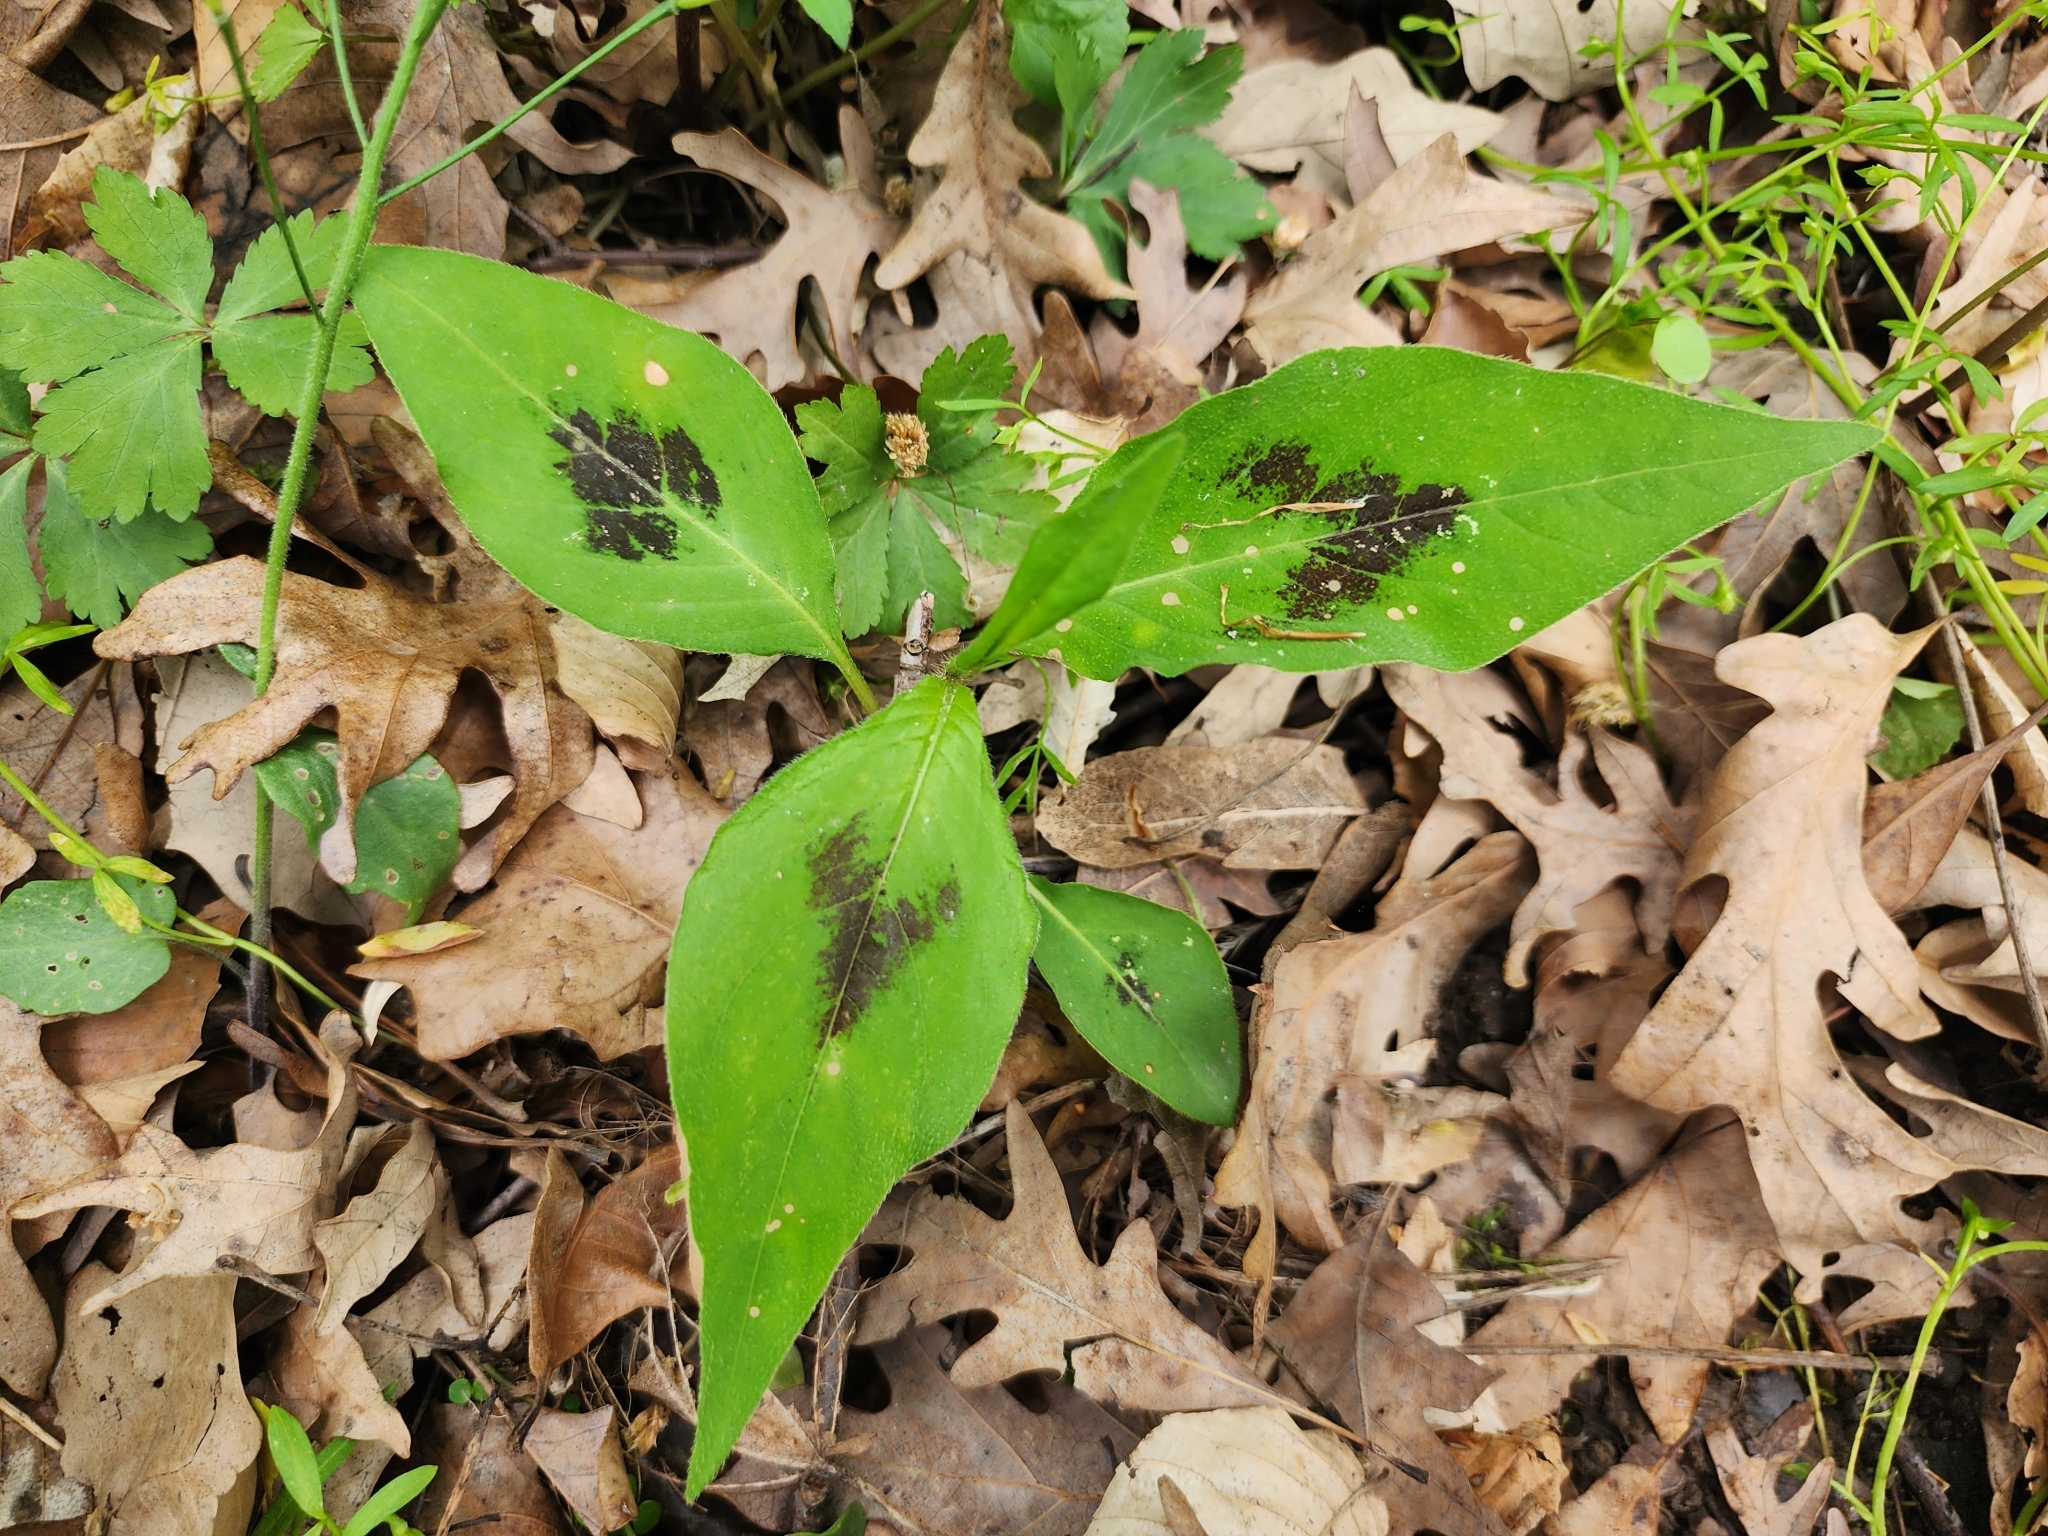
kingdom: Plantae
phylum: Tracheophyta
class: Magnoliopsida
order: Caryophyllales
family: Polygonaceae
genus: Persicaria
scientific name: Persicaria virginiana
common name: Jumpseed
